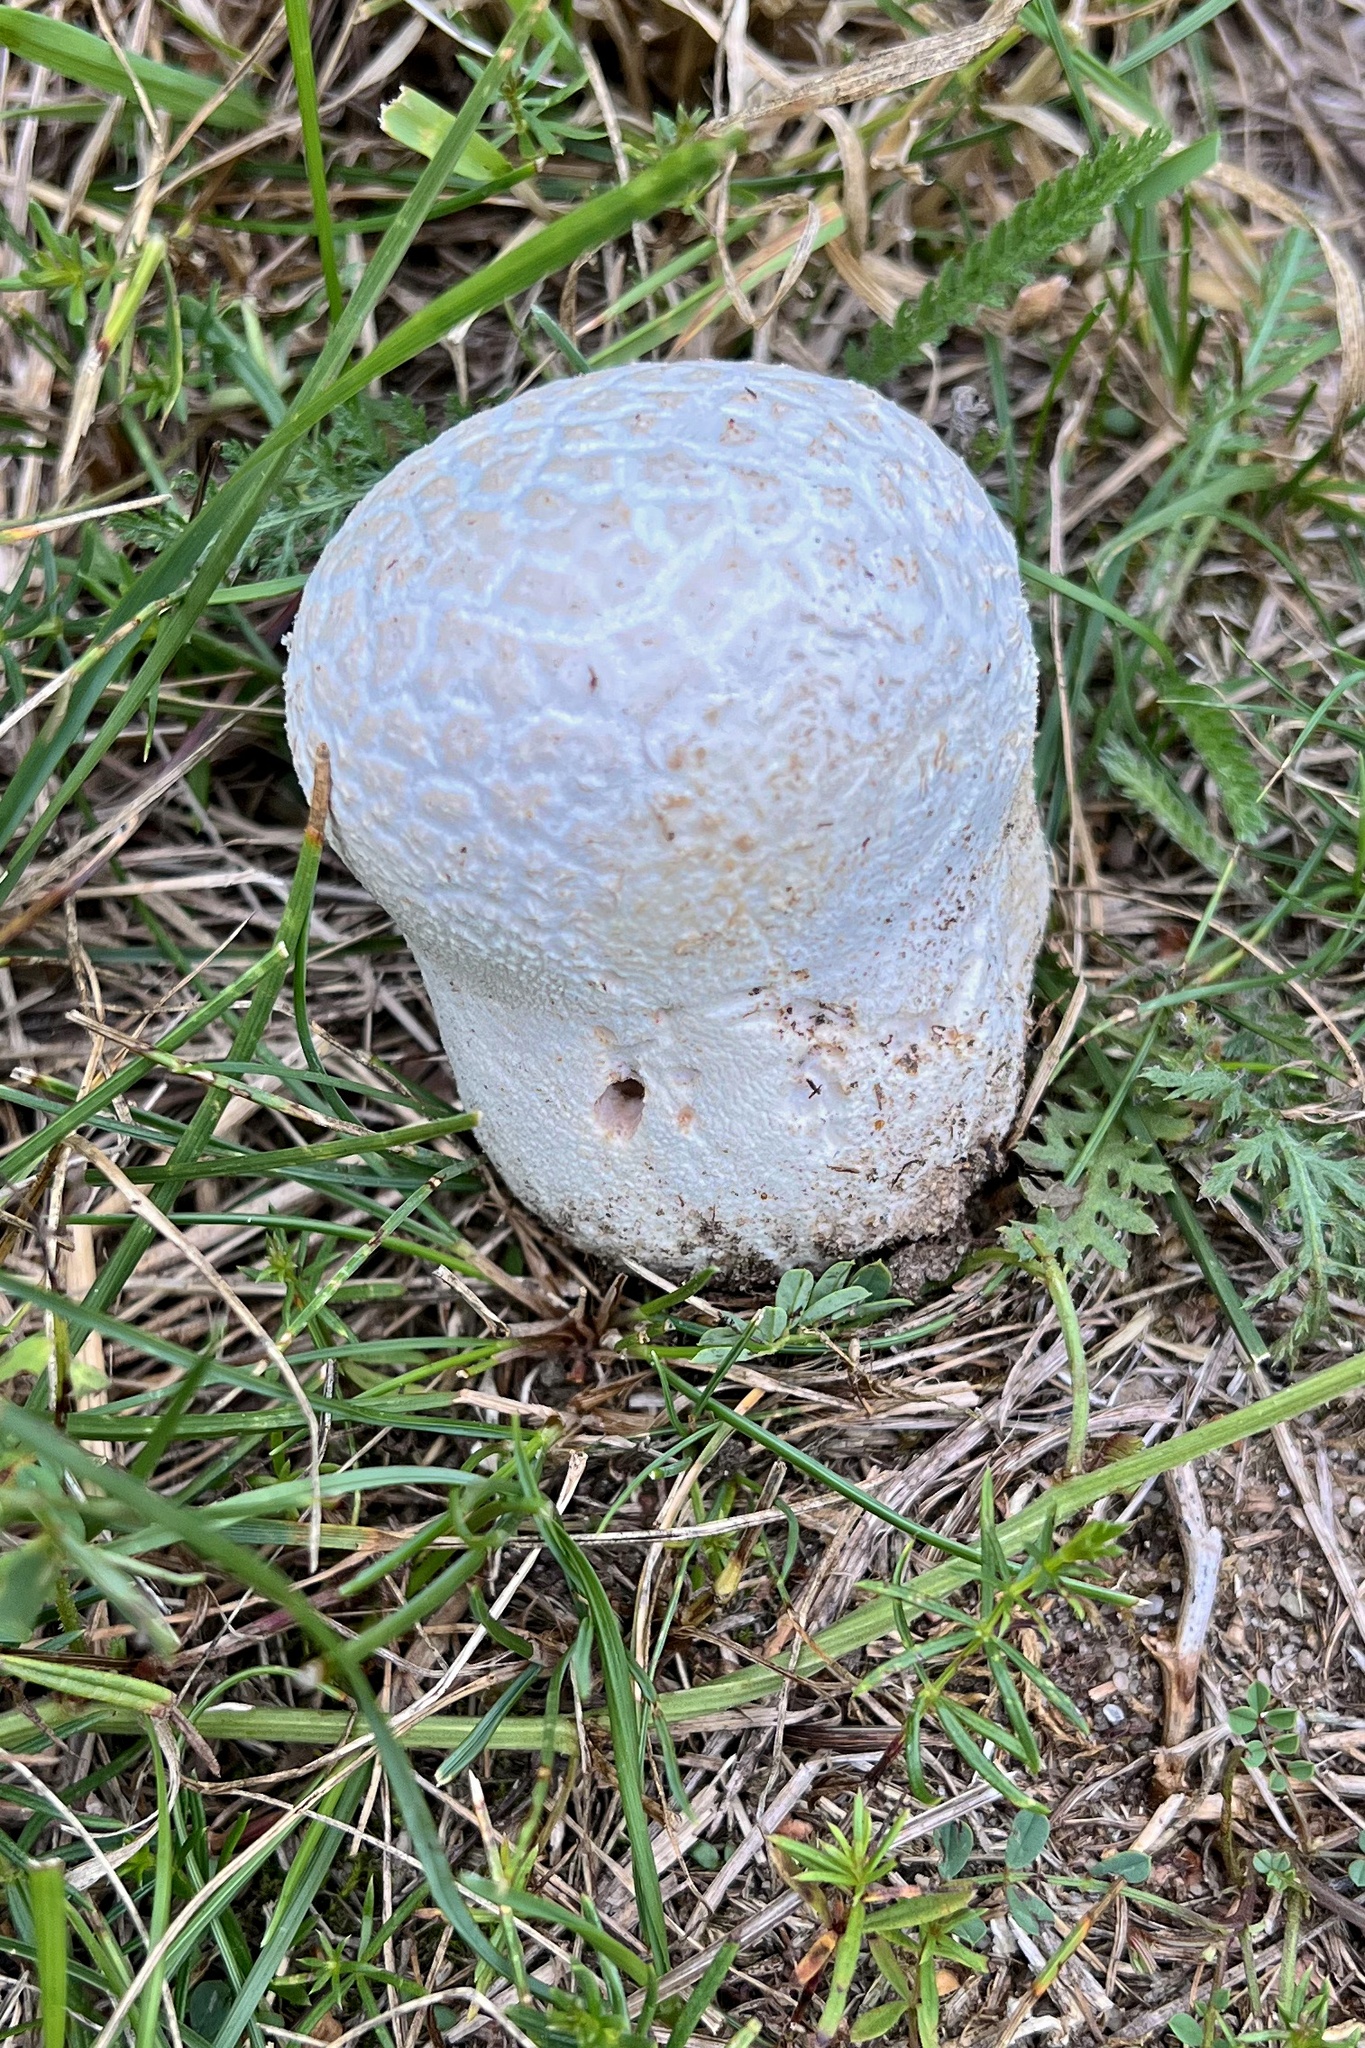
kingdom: Fungi
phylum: Basidiomycota
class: Agaricomycetes
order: Agaricales
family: Lycoperdaceae
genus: Bovistella
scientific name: Bovistella utriformis
